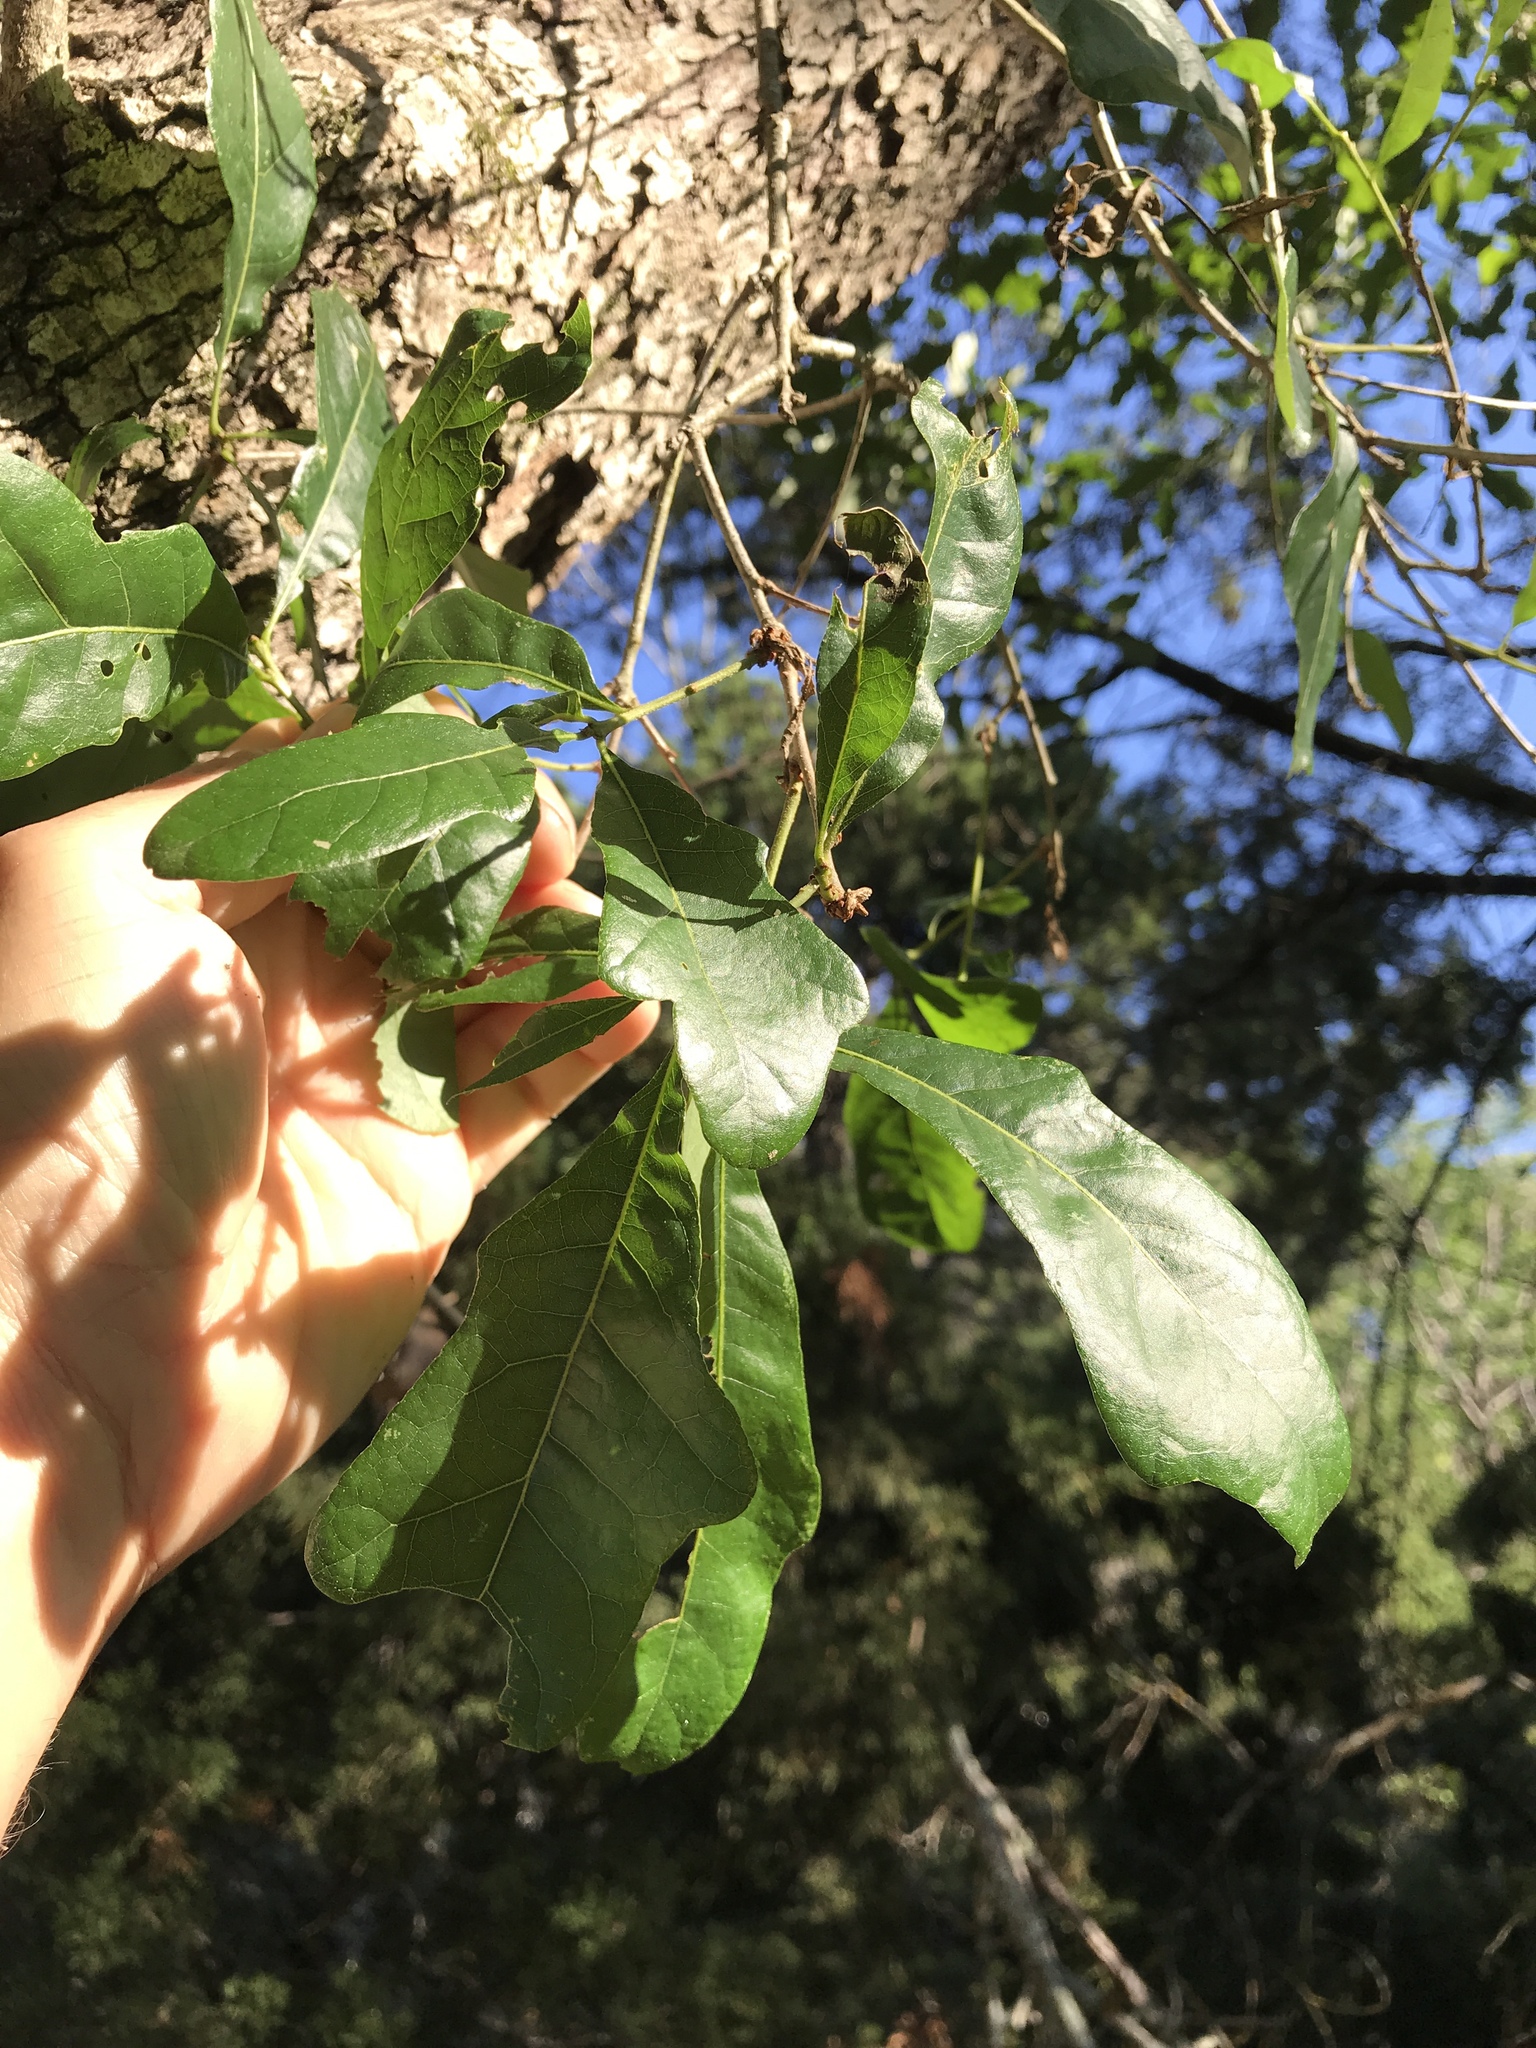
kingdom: Plantae
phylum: Tracheophyta
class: Magnoliopsida
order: Fagales
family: Fagaceae
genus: Quercus
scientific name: Quercus sinuata
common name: Durand oak
